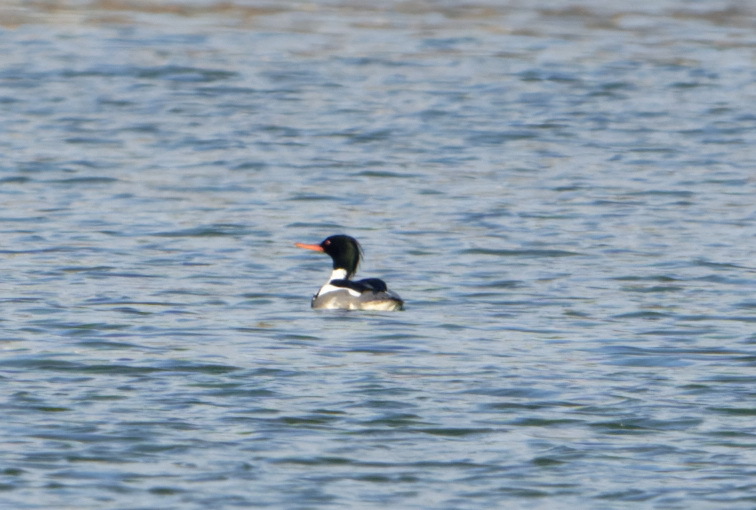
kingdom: Animalia
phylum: Chordata
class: Aves
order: Anseriformes
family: Anatidae
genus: Mergus
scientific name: Mergus serrator
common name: Red-breasted merganser
